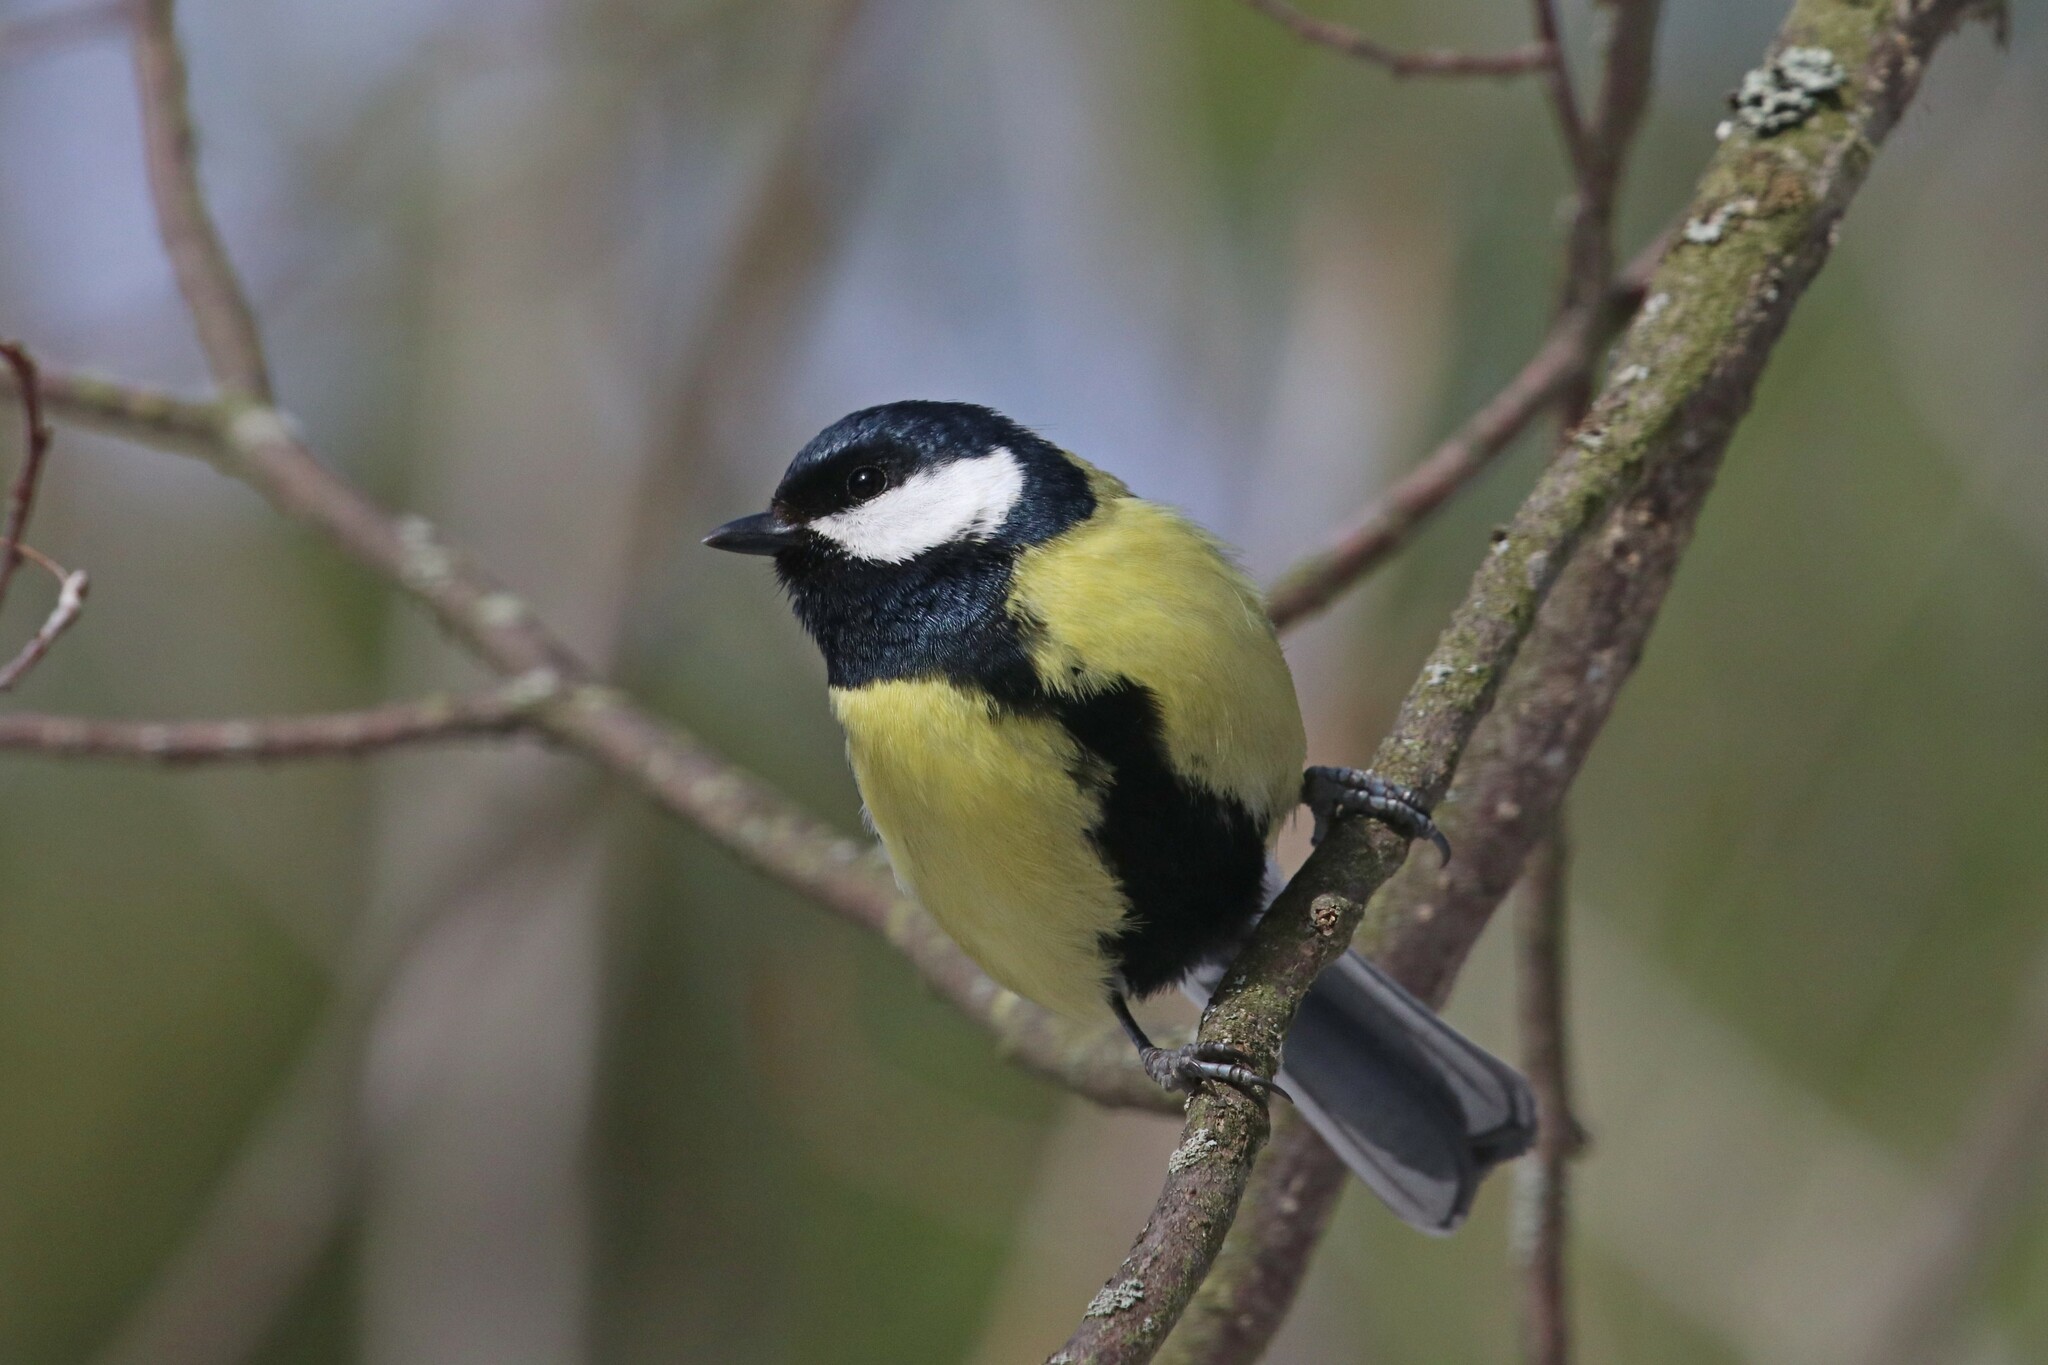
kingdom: Animalia
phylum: Chordata
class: Aves
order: Passeriformes
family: Paridae
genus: Parus
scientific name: Parus major
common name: Great tit
